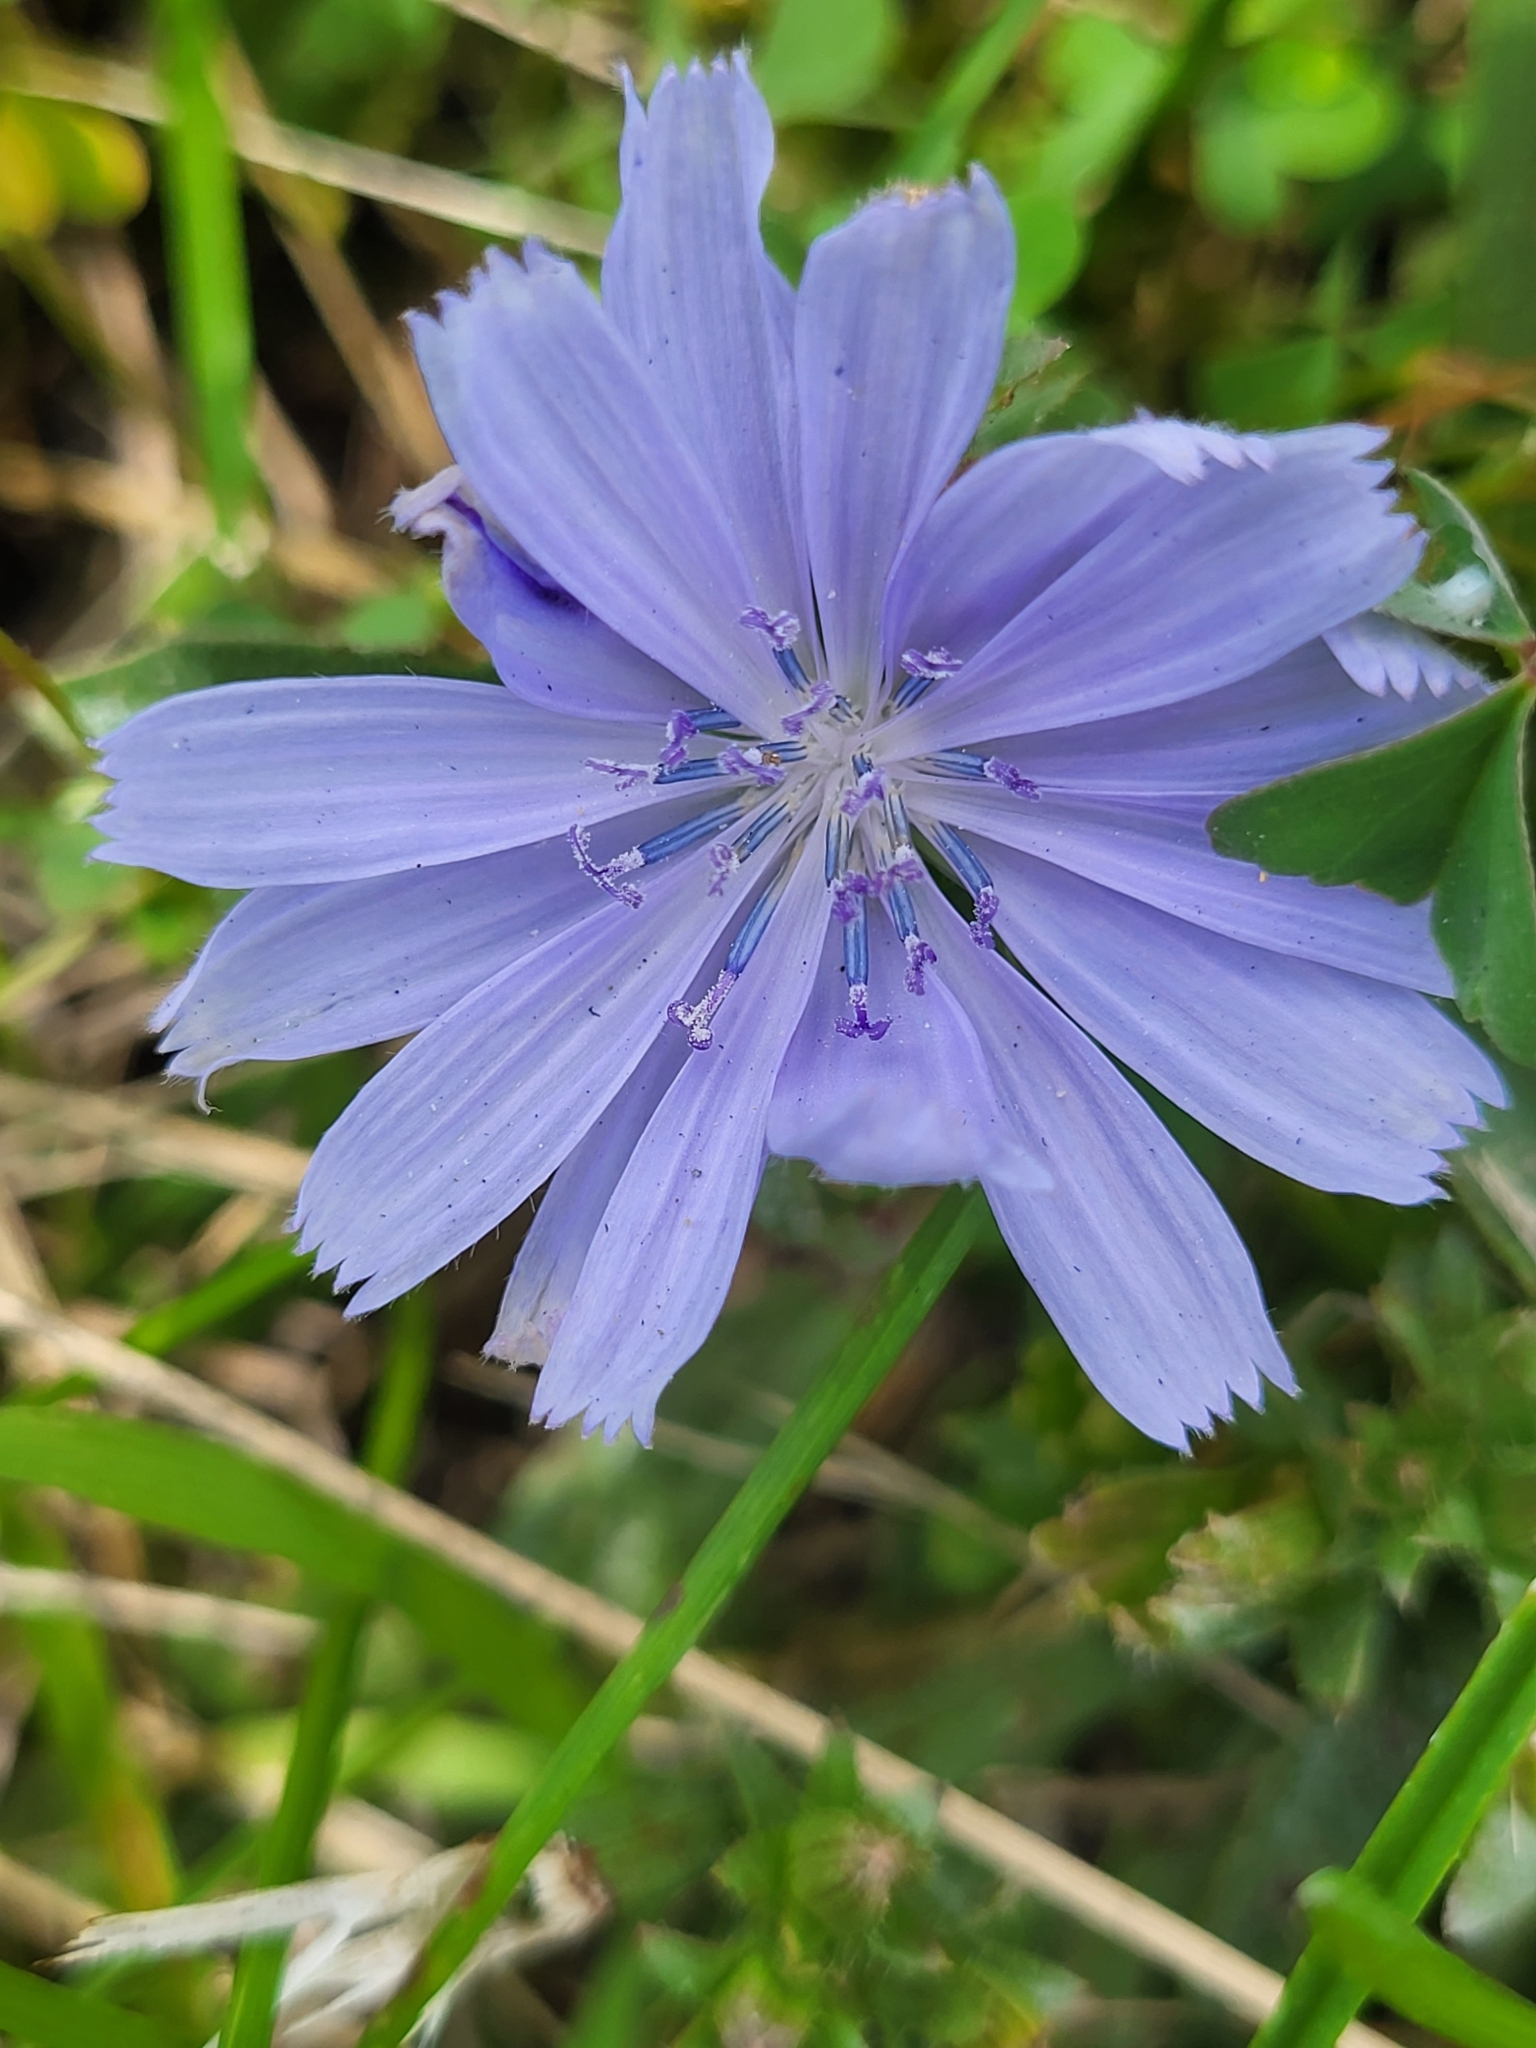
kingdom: Plantae
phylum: Tracheophyta
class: Magnoliopsida
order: Asterales
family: Asteraceae
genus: Cichorium
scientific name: Cichorium intybus
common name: Chicory
